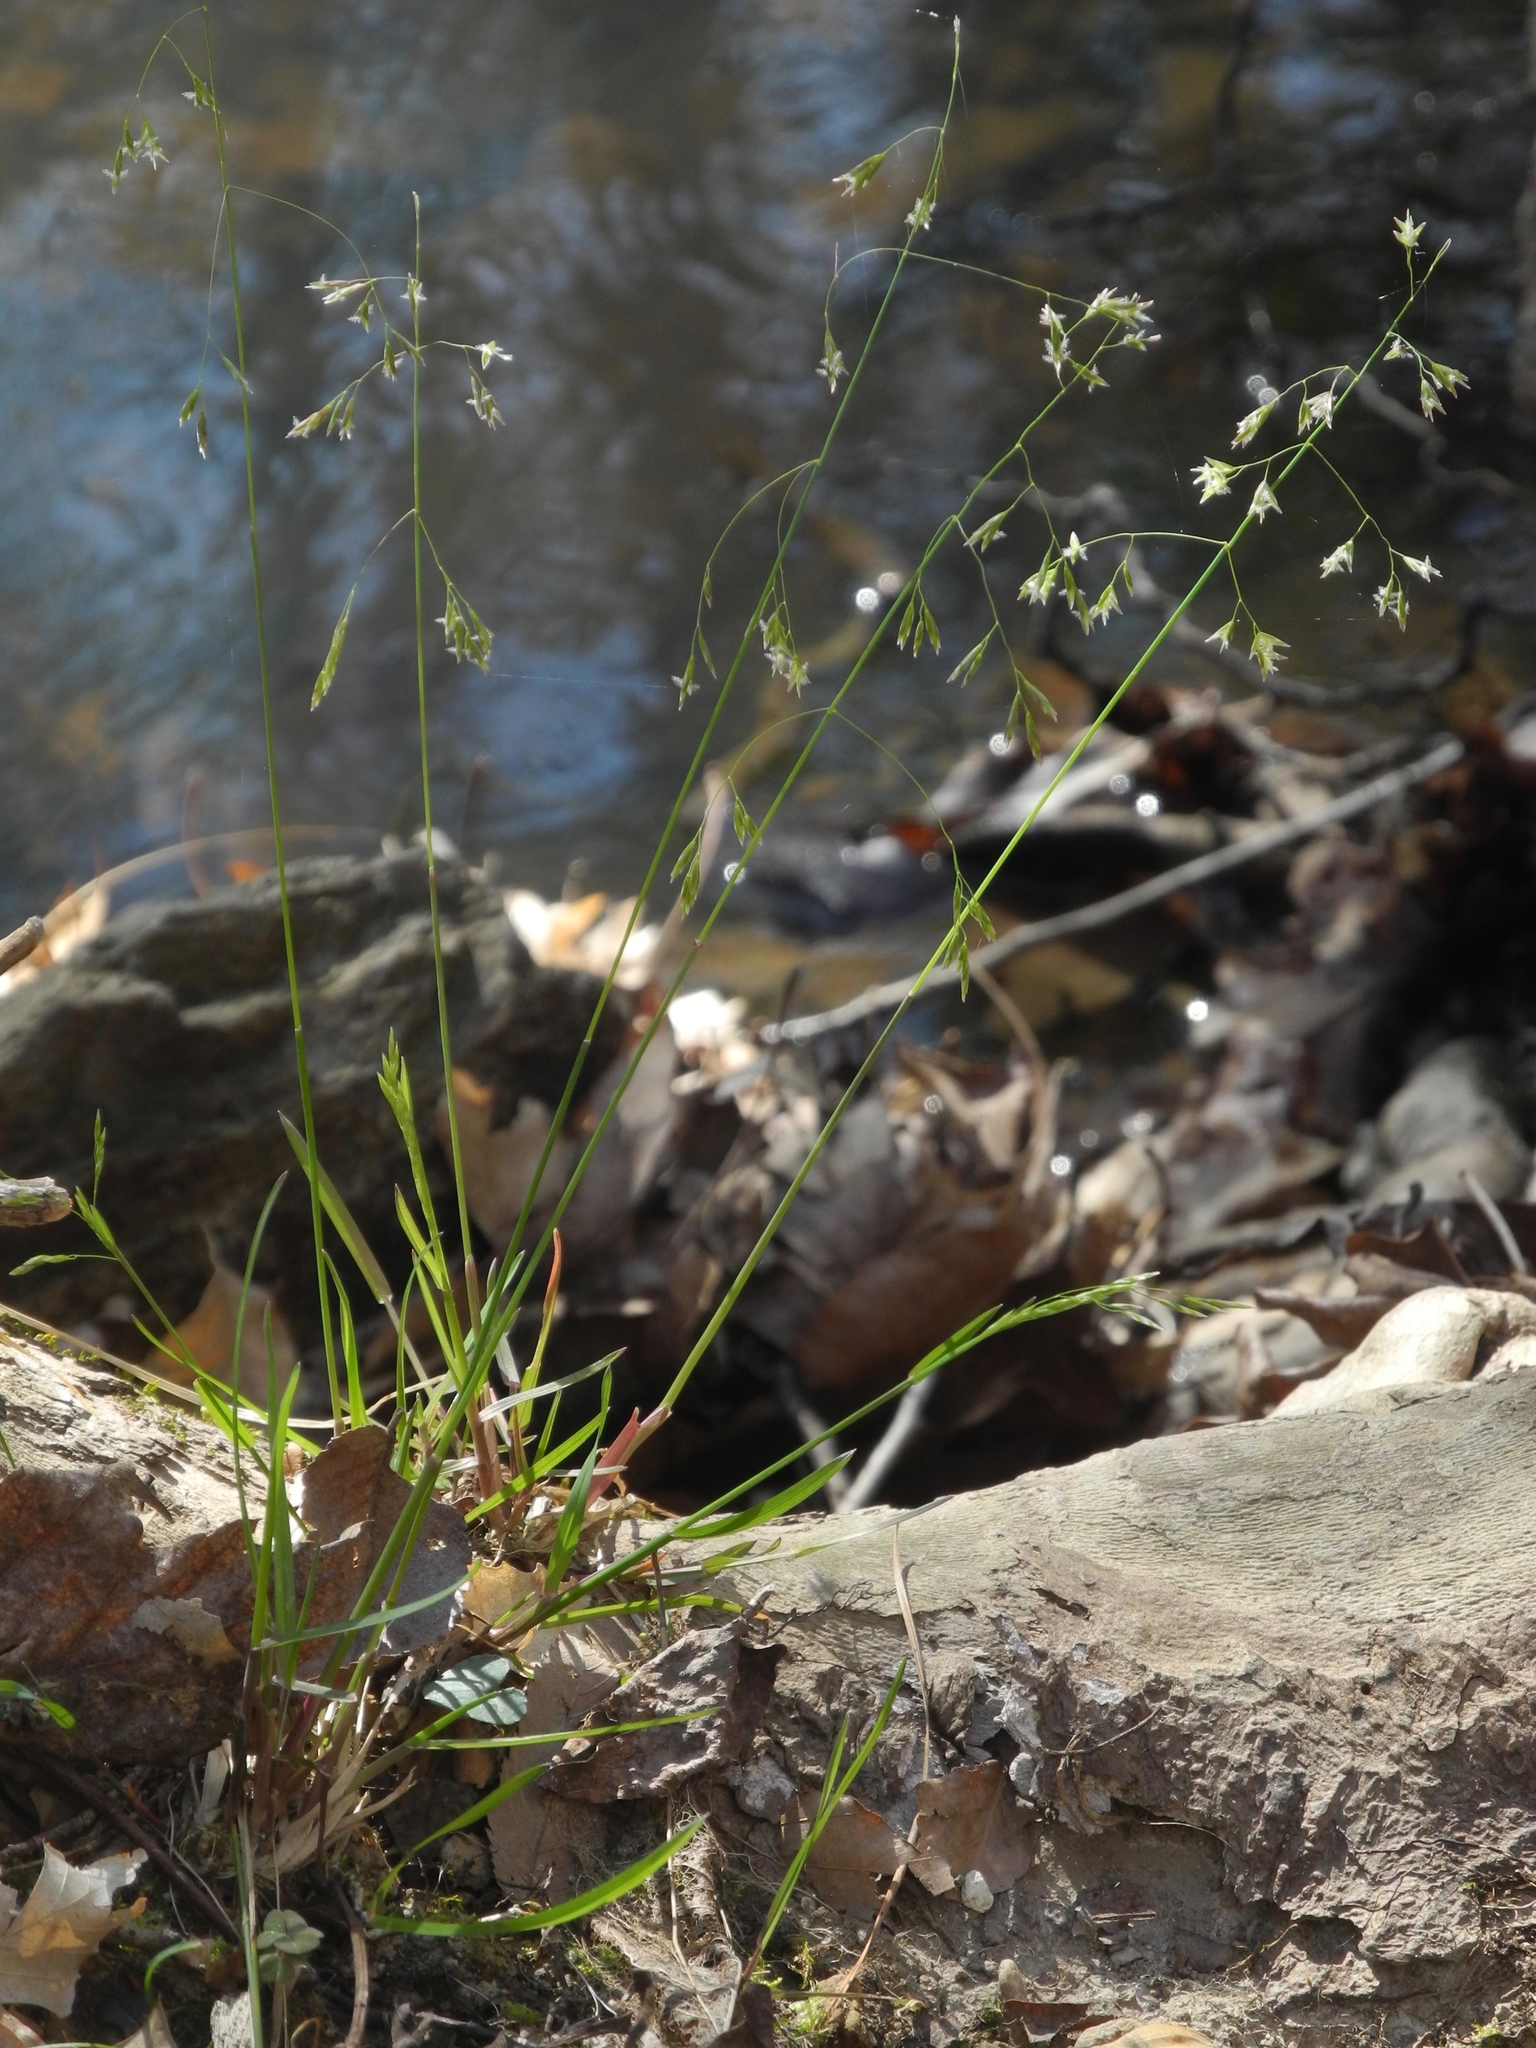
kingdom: Plantae
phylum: Tracheophyta
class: Liliopsida
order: Poales
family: Poaceae
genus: Poa
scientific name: Poa autumnalis
